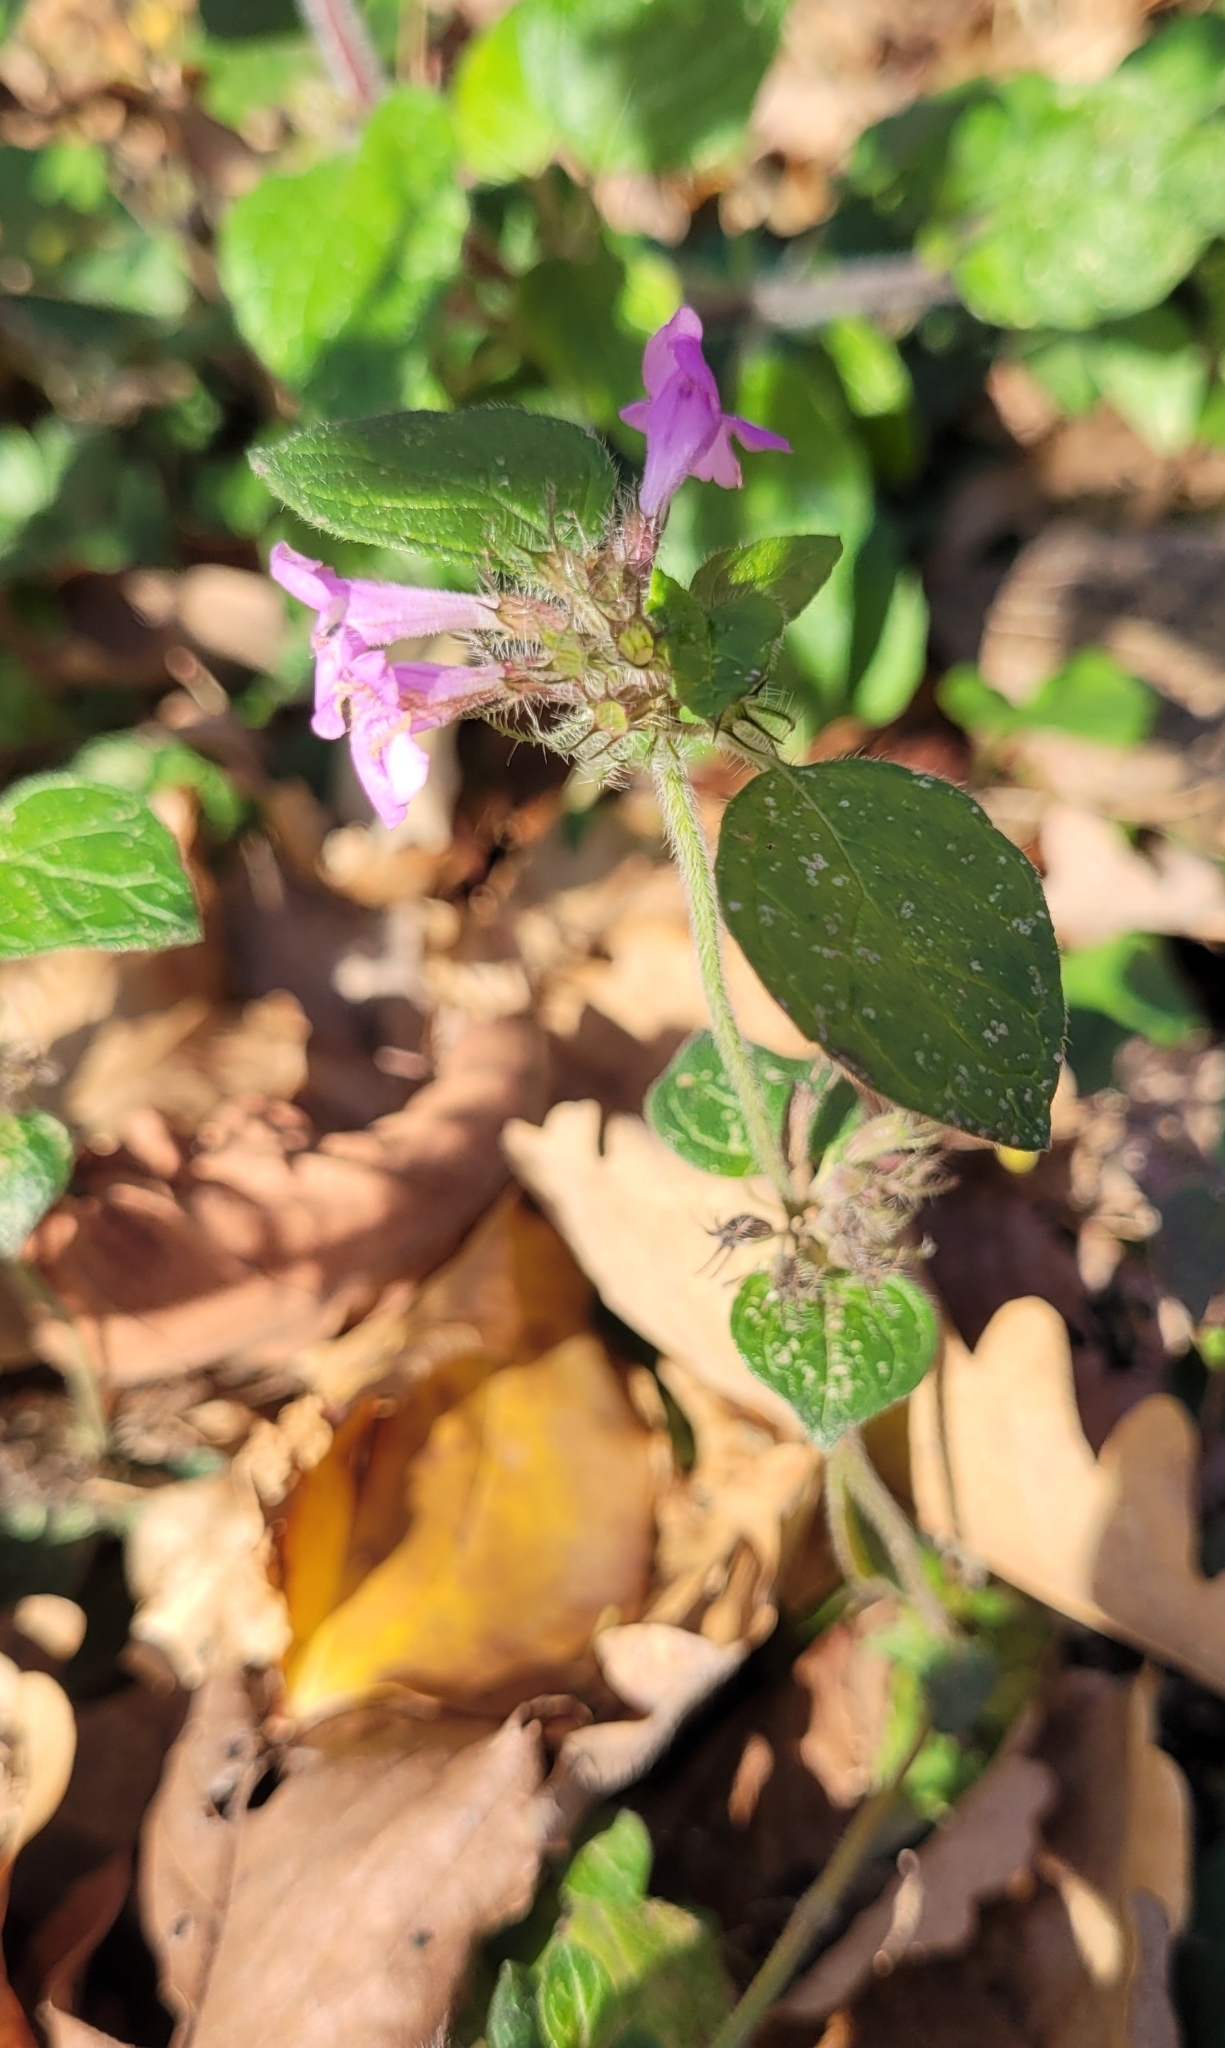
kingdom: Plantae
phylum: Tracheophyta
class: Magnoliopsida
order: Lamiales
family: Lamiaceae
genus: Clinopodium
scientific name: Clinopodium vulgare
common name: Wild basil
